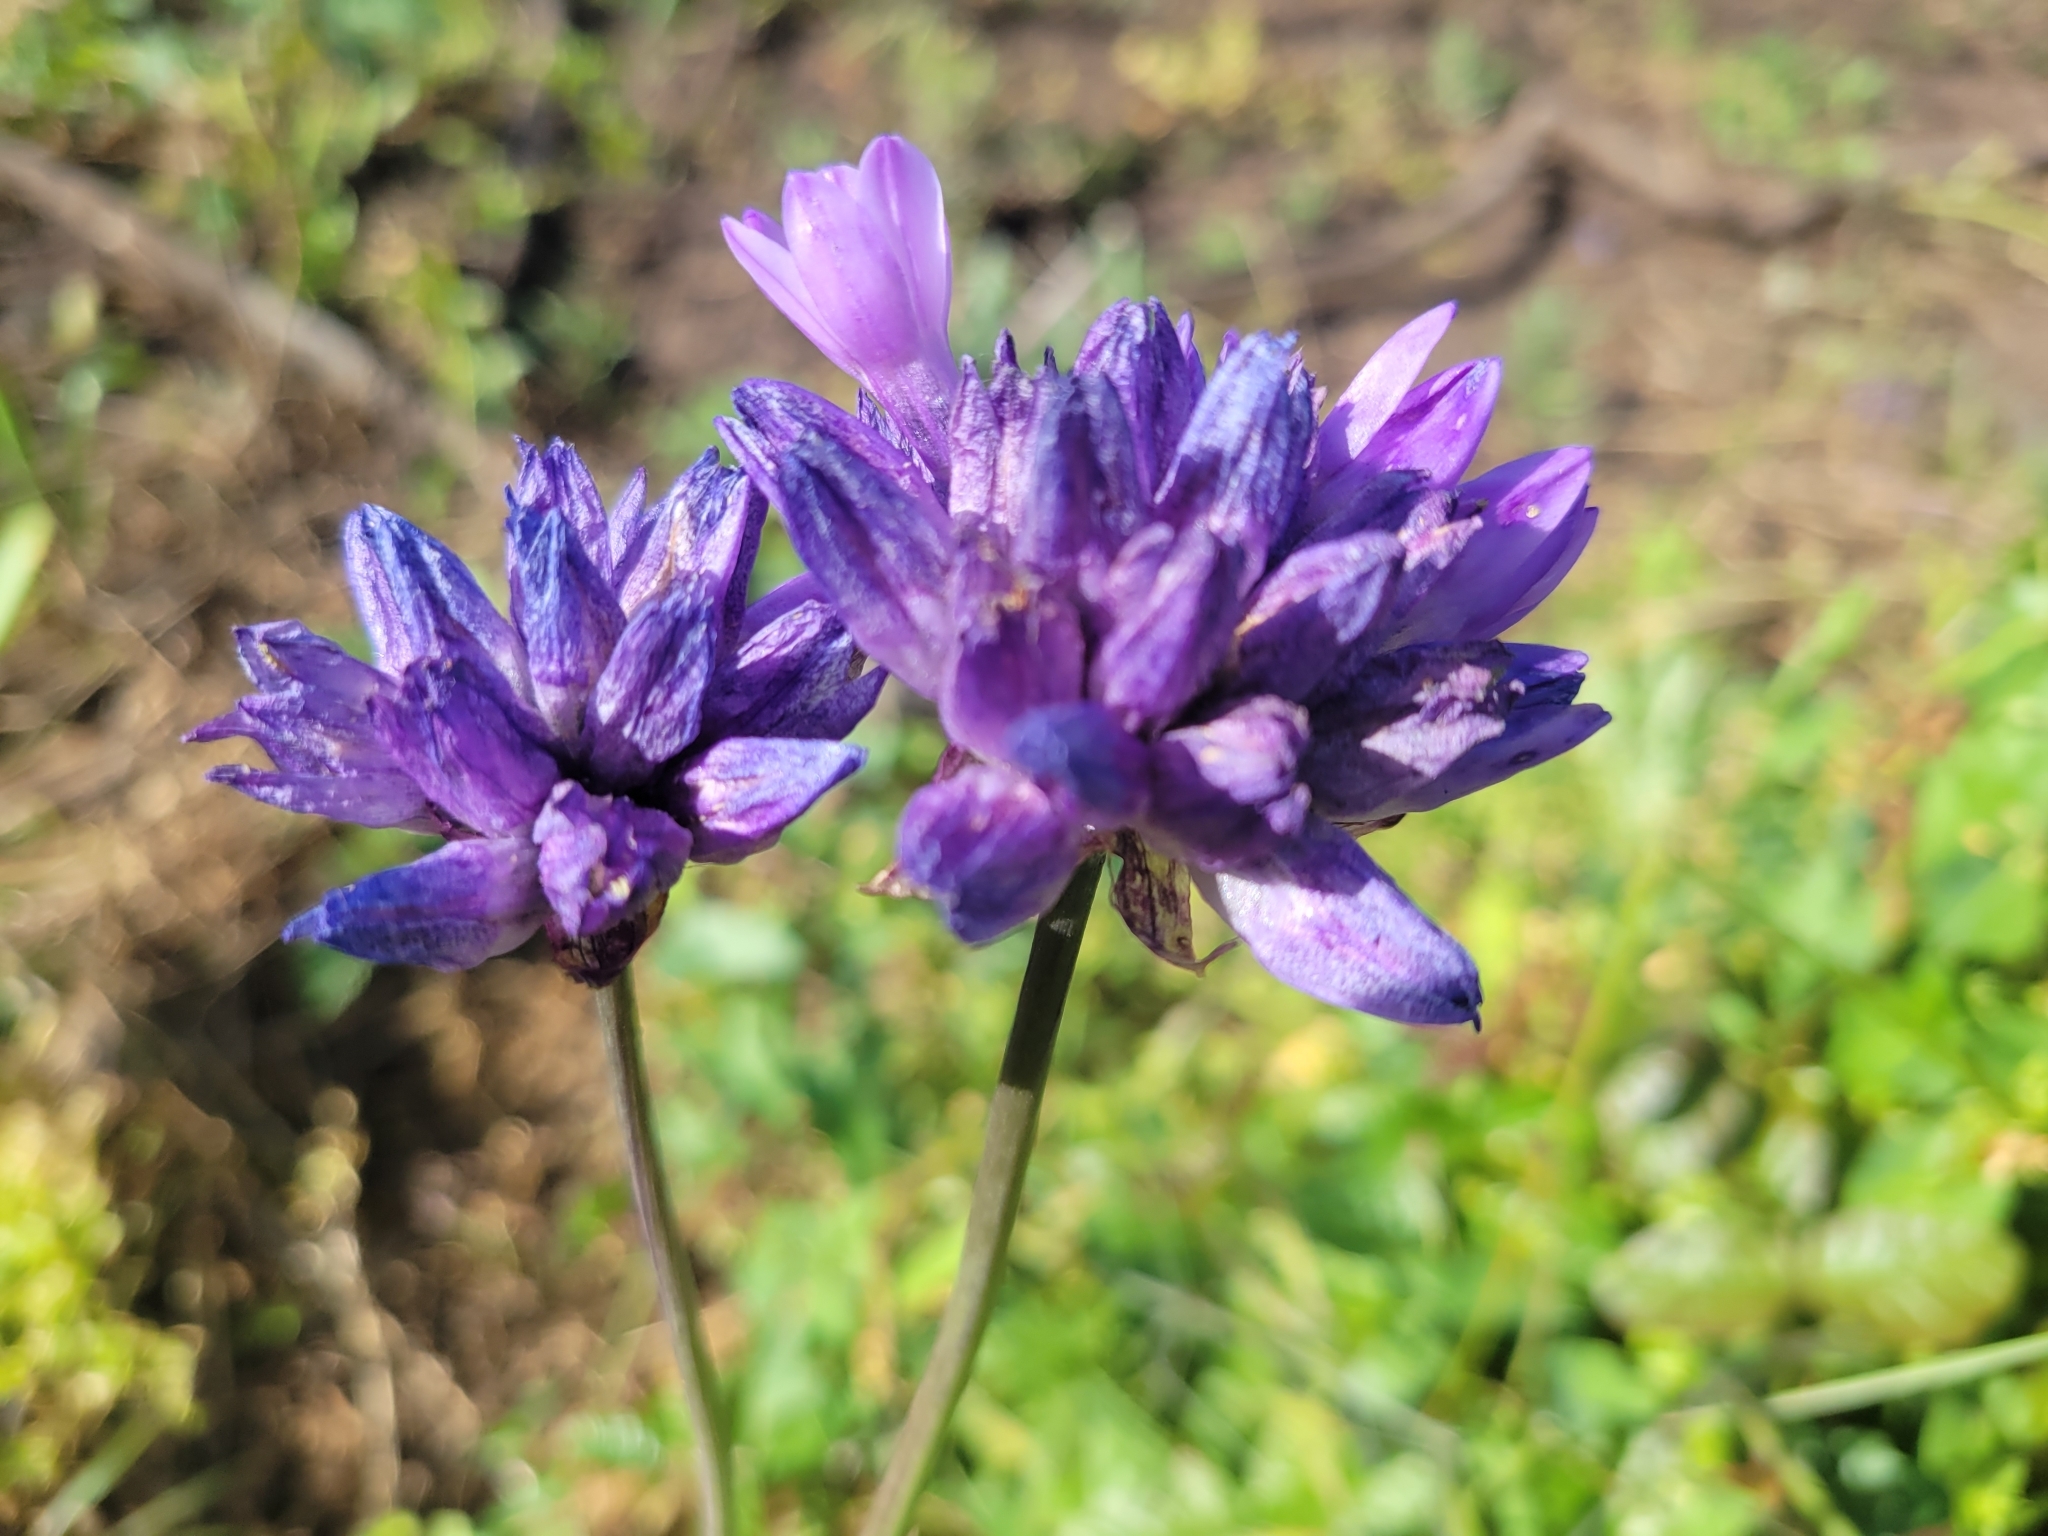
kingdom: Plantae
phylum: Tracheophyta
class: Liliopsida
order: Asparagales
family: Asparagaceae
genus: Dipterostemon
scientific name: Dipterostemon capitatus
